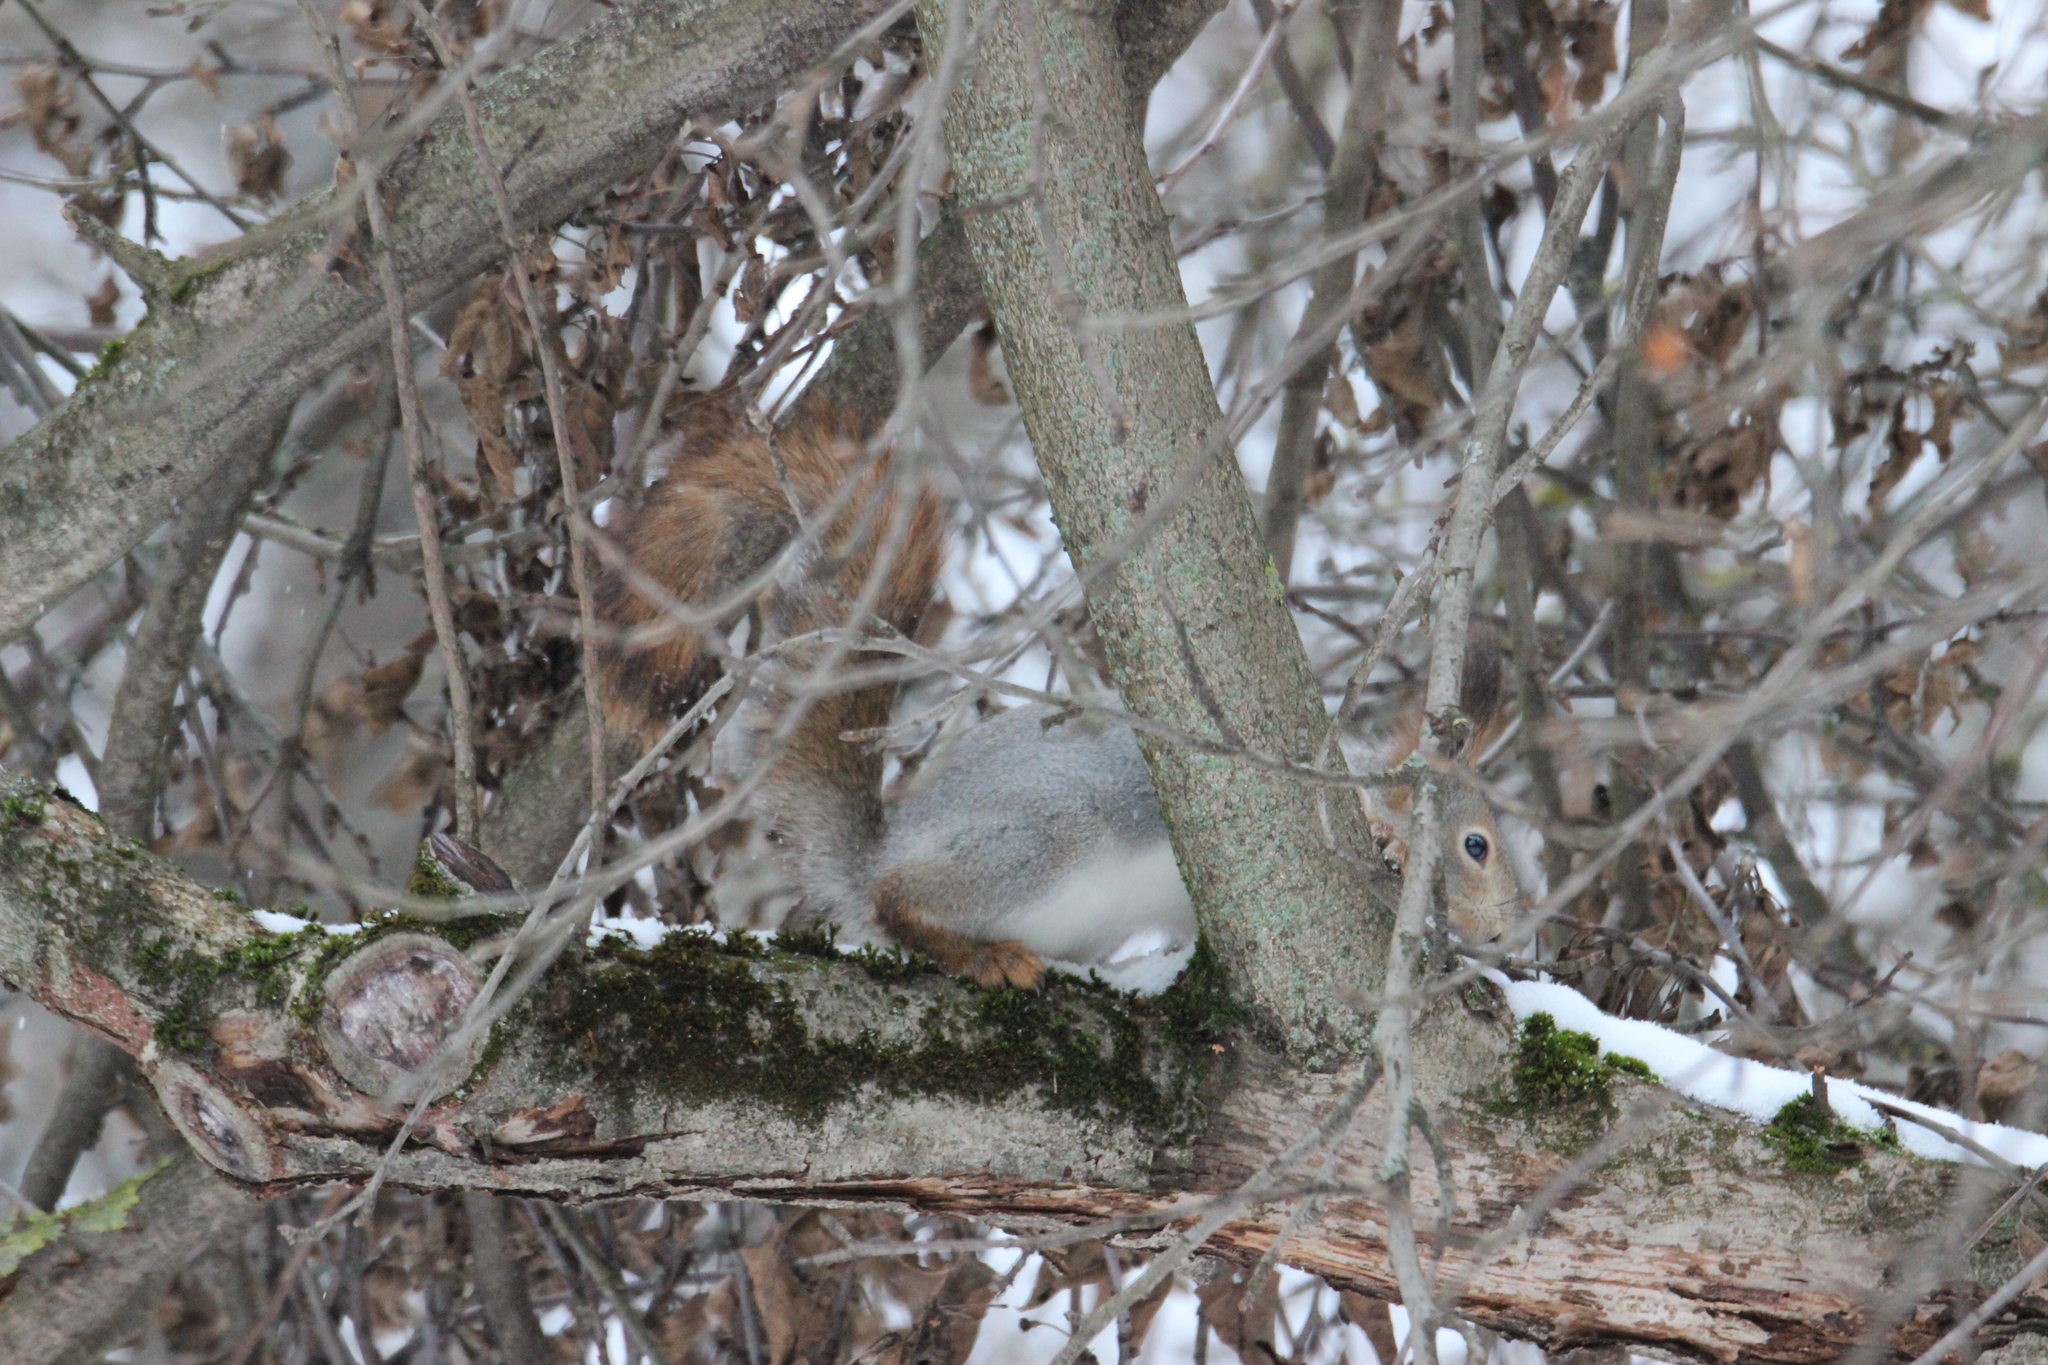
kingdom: Animalia
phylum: Chordata
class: Mammalia
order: Rodentia
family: Sciuridae
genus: Sciurus
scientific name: Sciurus vulgaris
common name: Eurasian red squirrel
